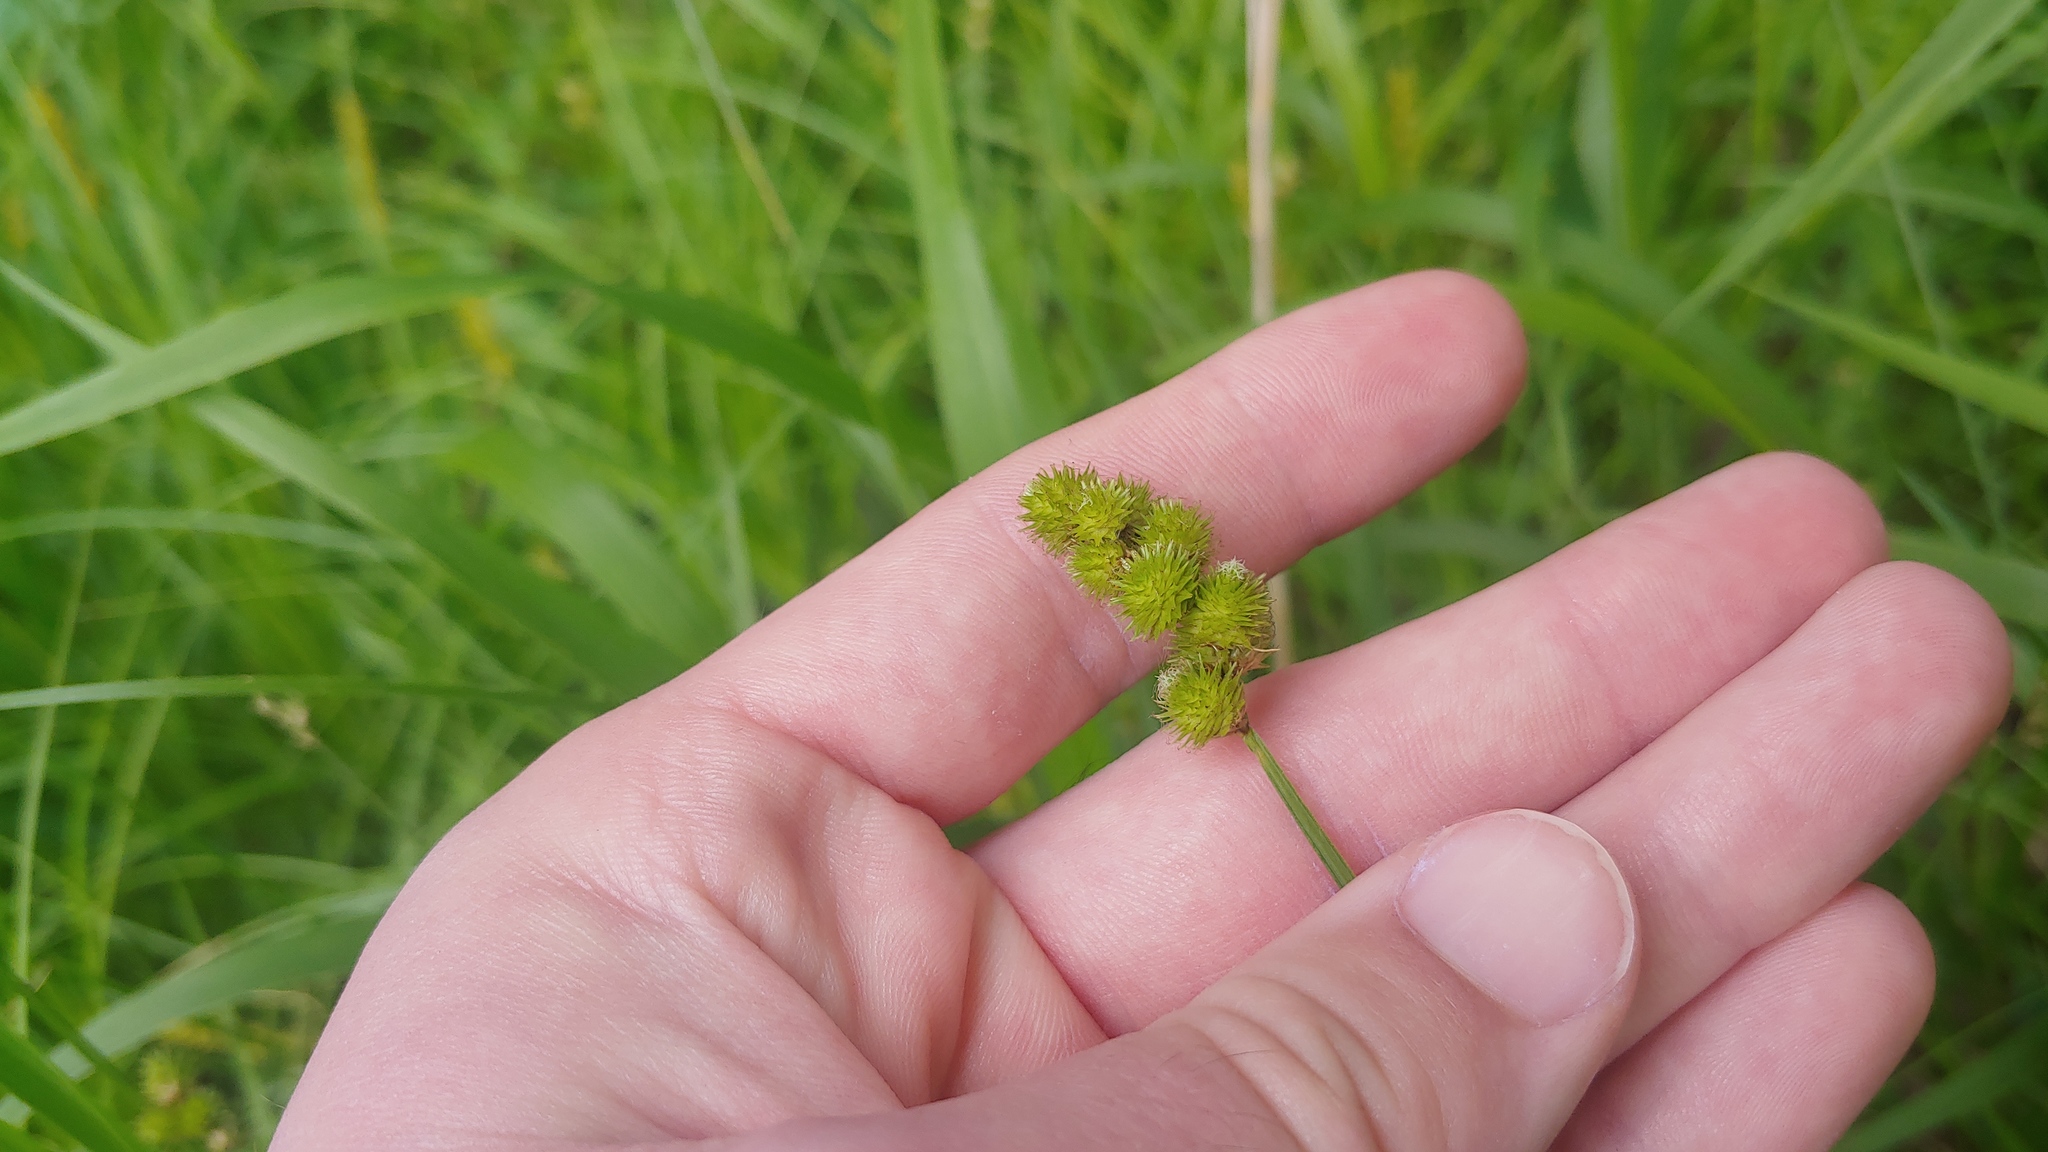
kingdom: Plantae
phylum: Tracheophyta
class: Liliopsida
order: Poales
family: Cyperaceae
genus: Carex
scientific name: Carex cristatella
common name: Crested oval sedge
